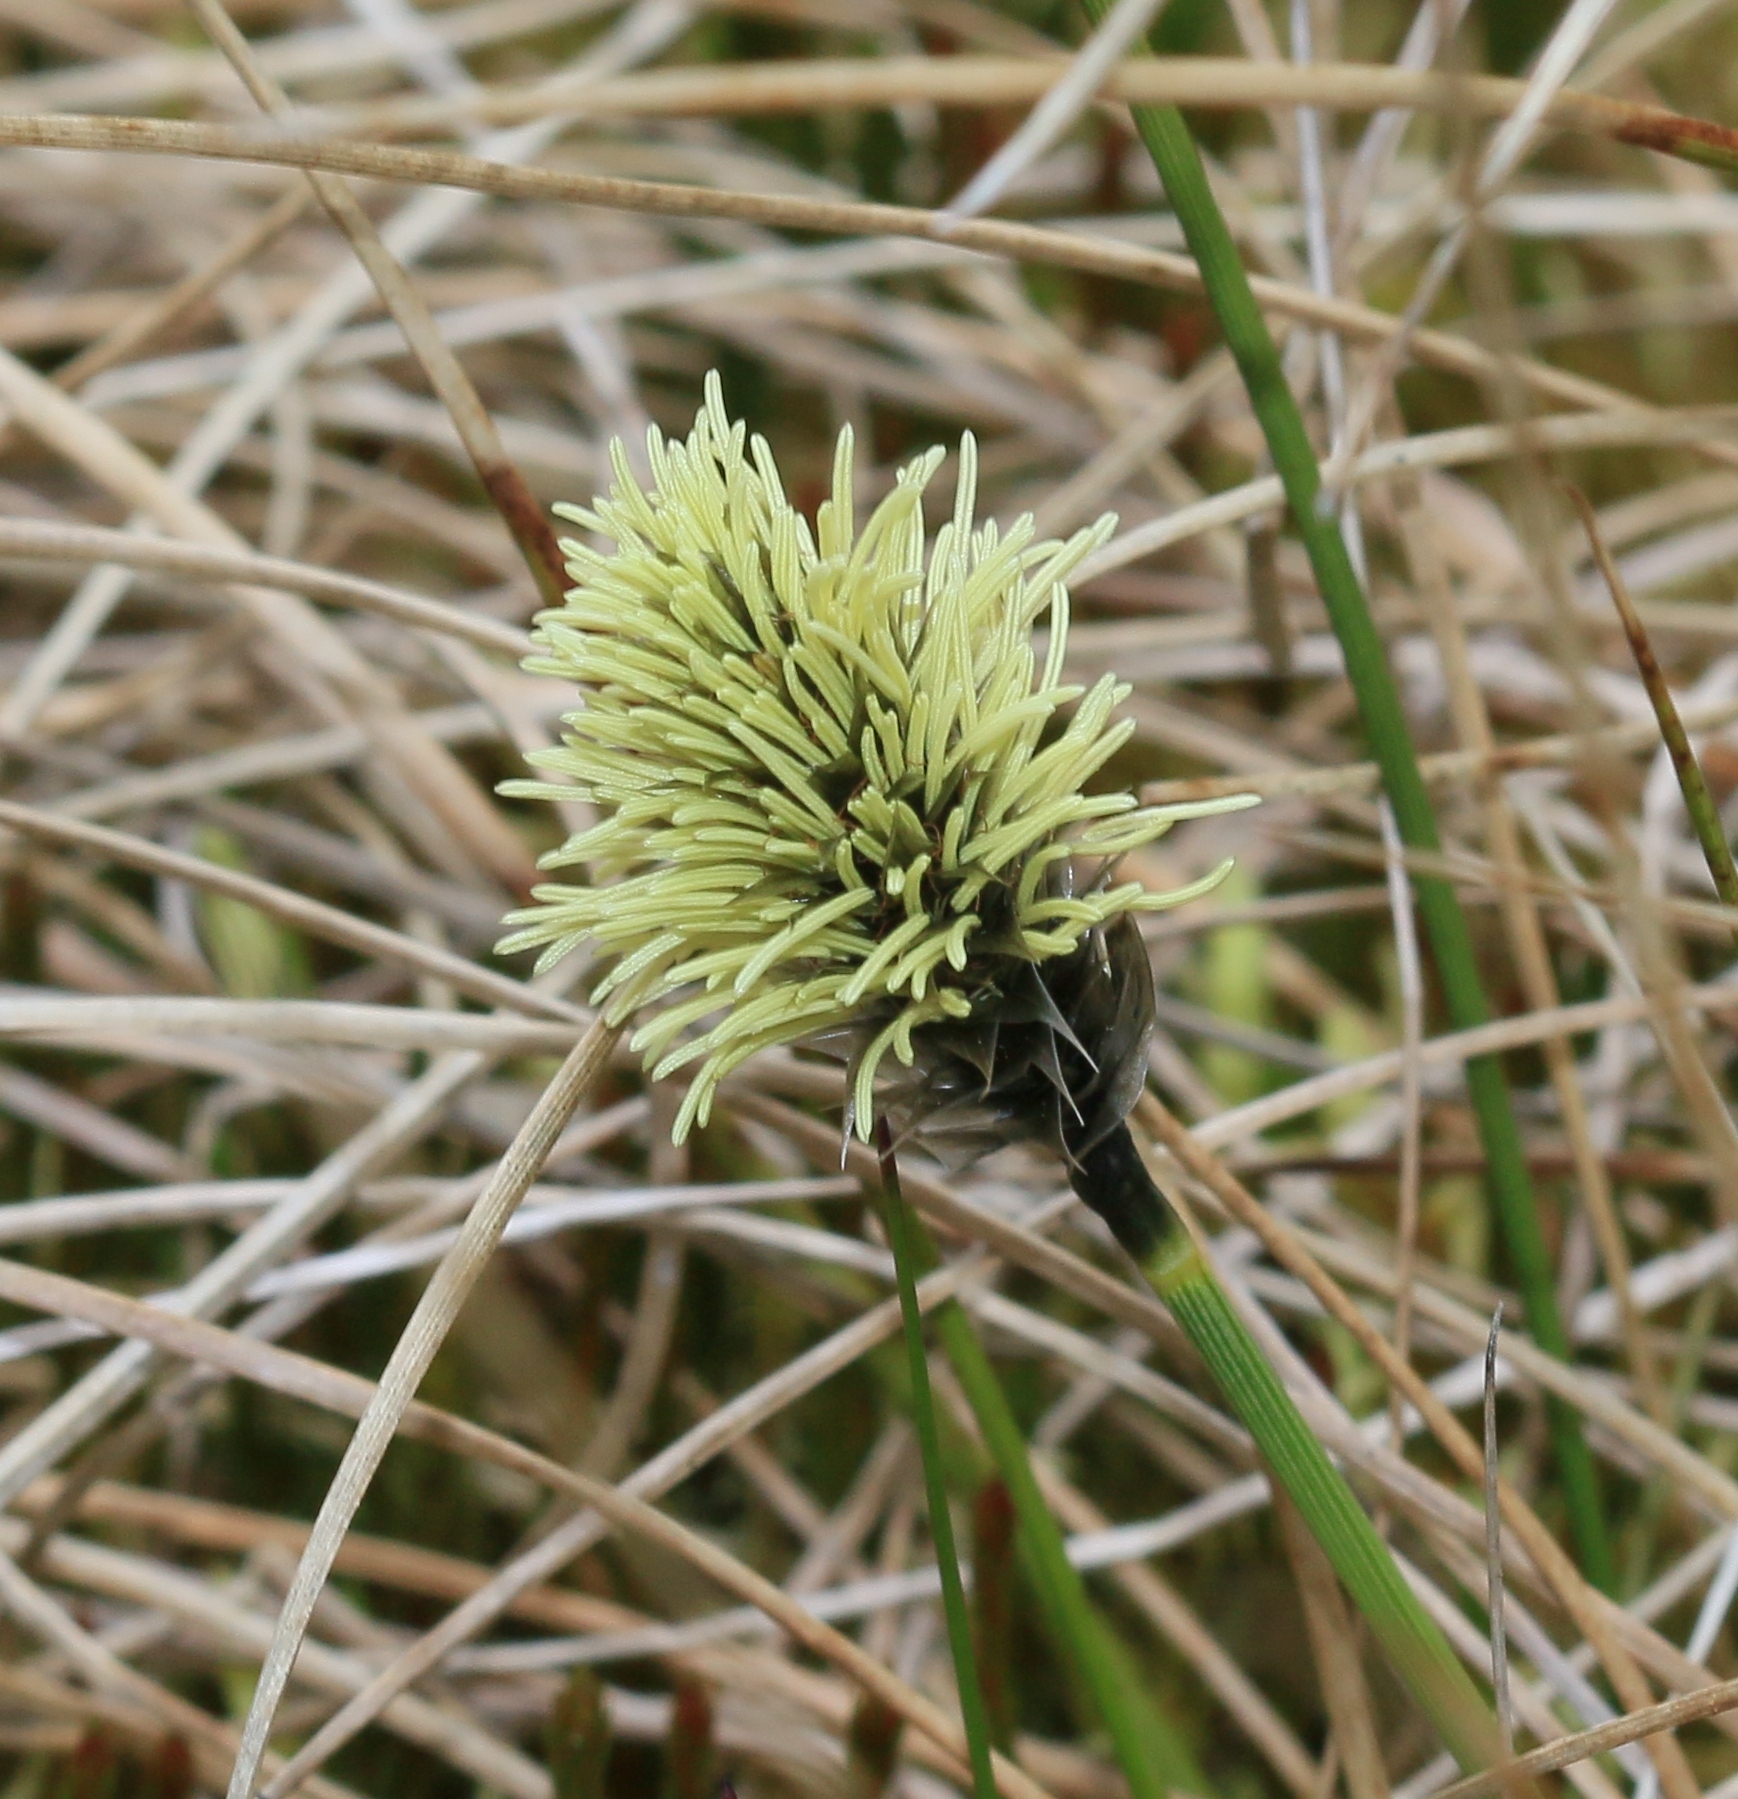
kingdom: Plantae
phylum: Tracheophyta
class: Liliopsida
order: Poales
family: Cyperaceae
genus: Eriophorum
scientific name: Eriophorum vaginatum
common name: Hare's-tail cottongrass
